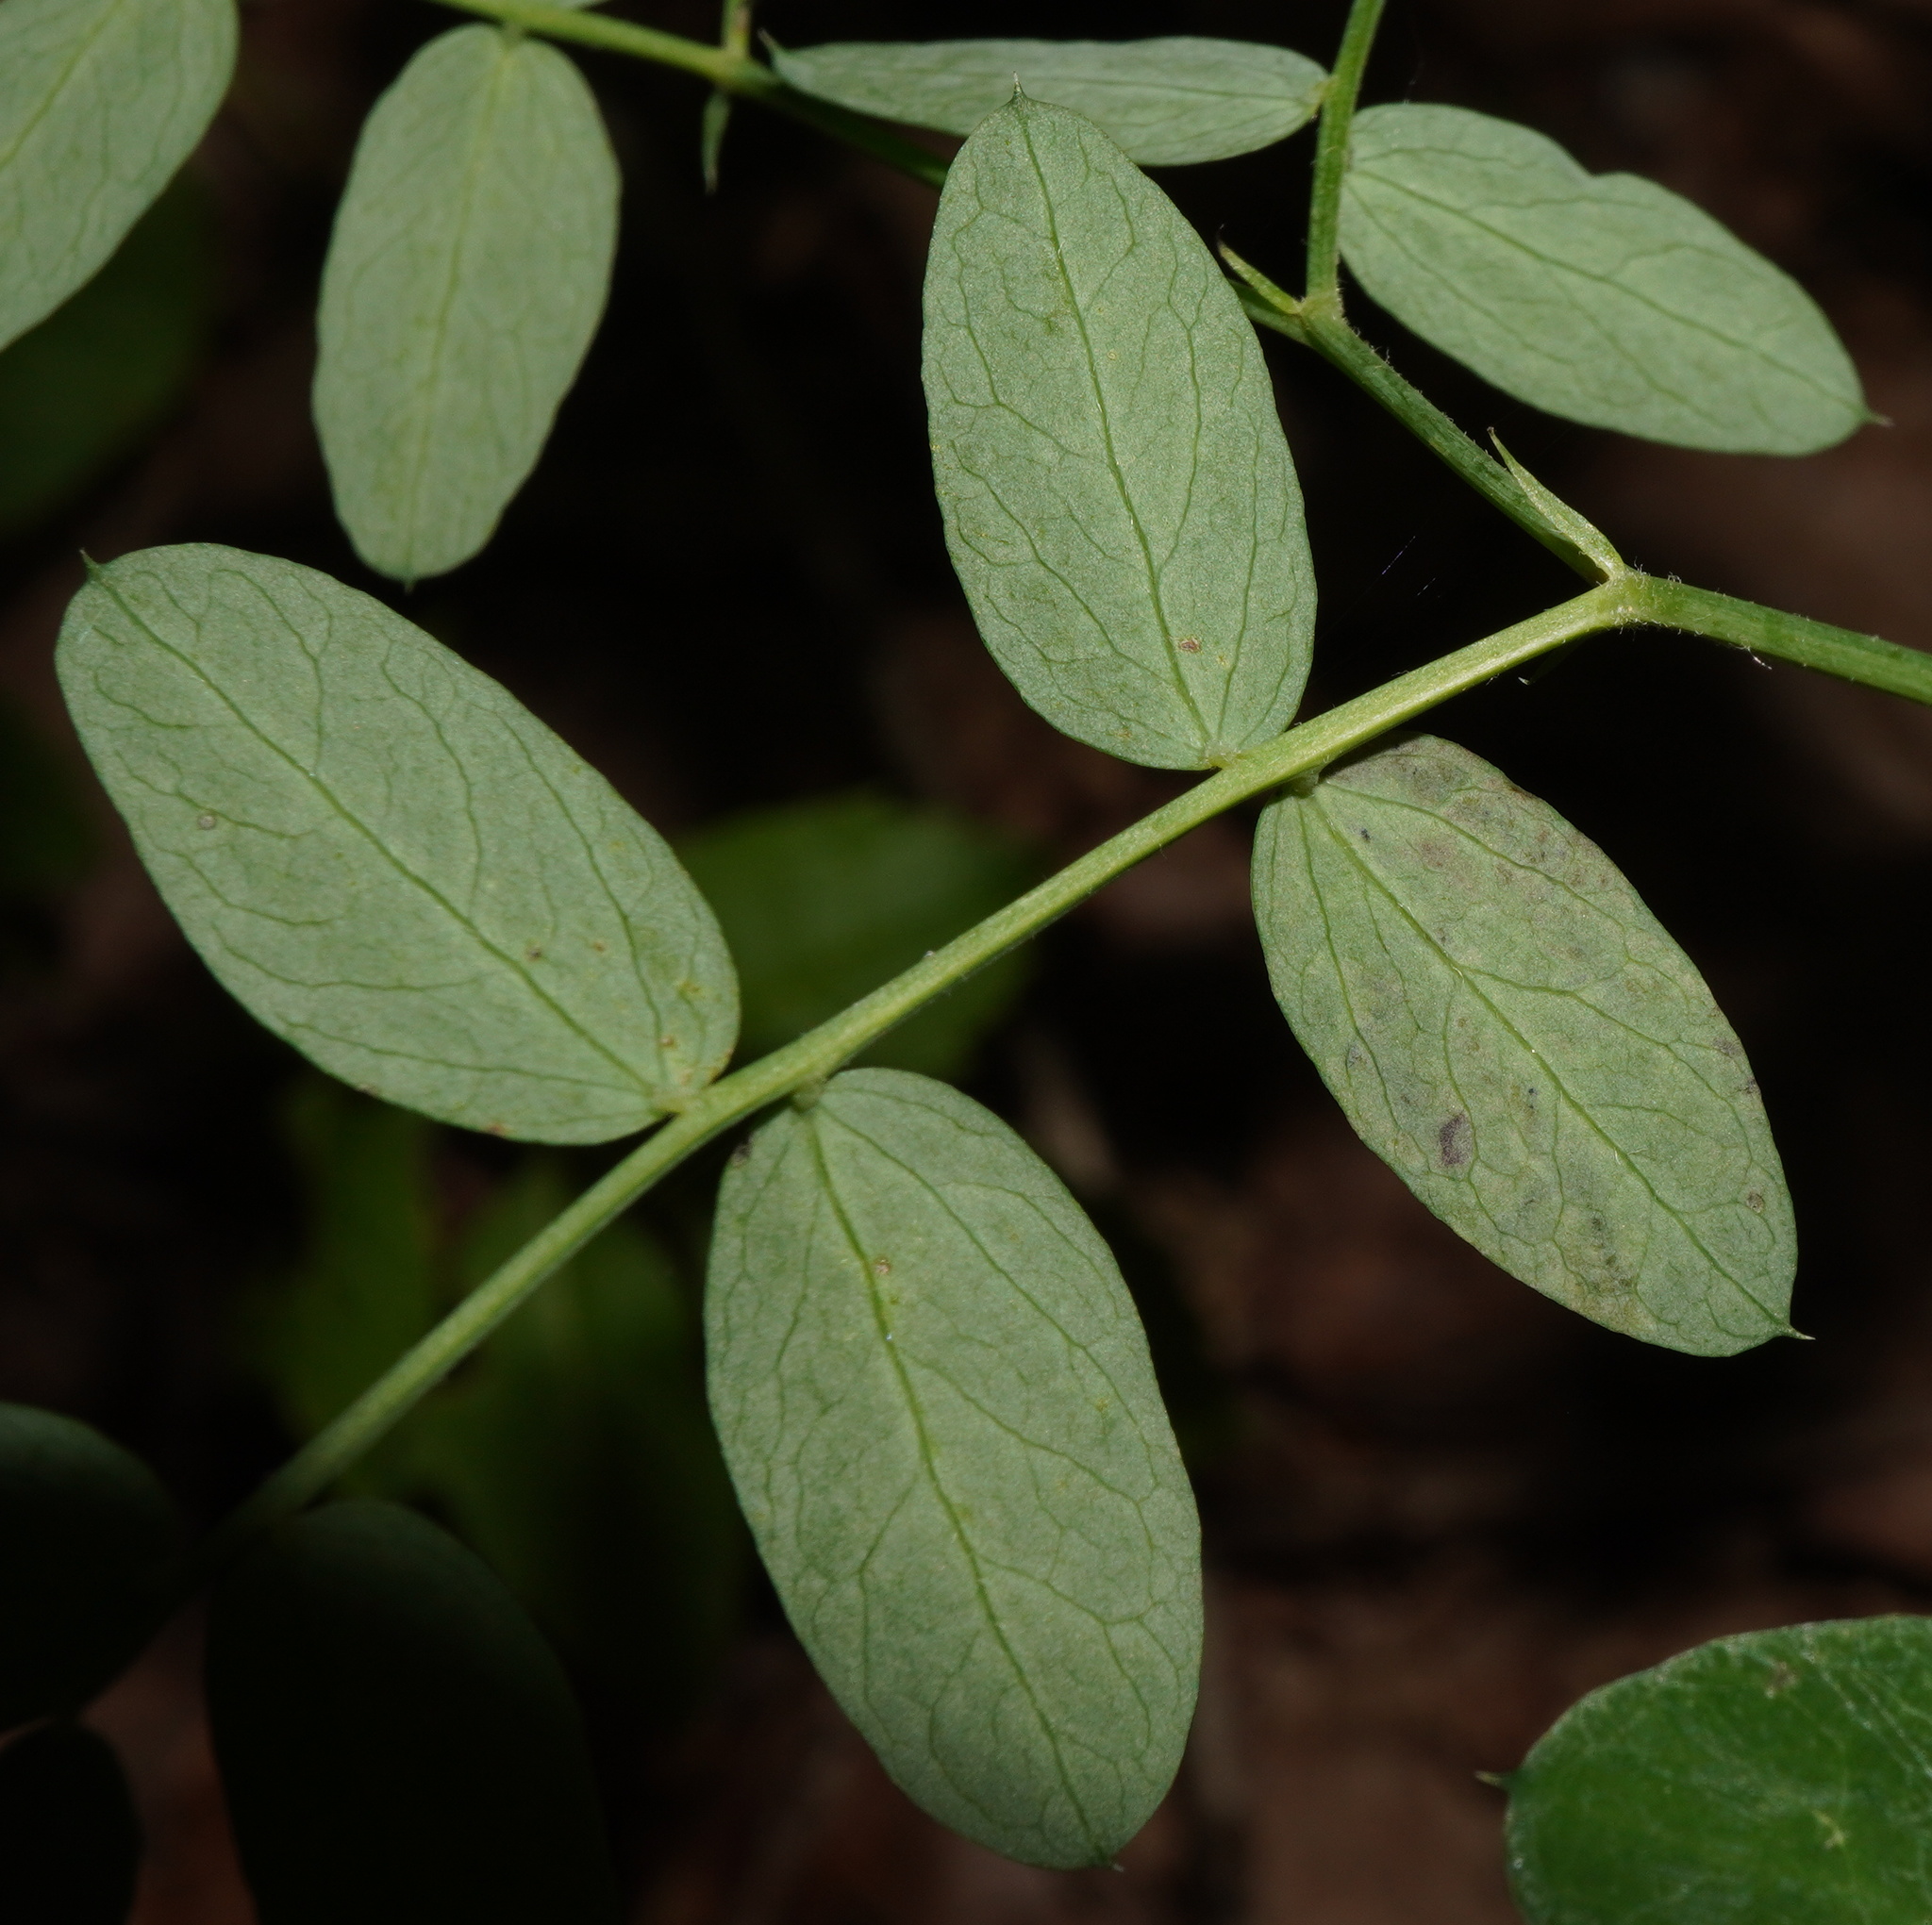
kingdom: Plantae
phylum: Tracheophyta
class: Magnoliopsida
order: Fabales
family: Fabaceae
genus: Lathyrus
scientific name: Lathyrus niger
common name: Black pea
